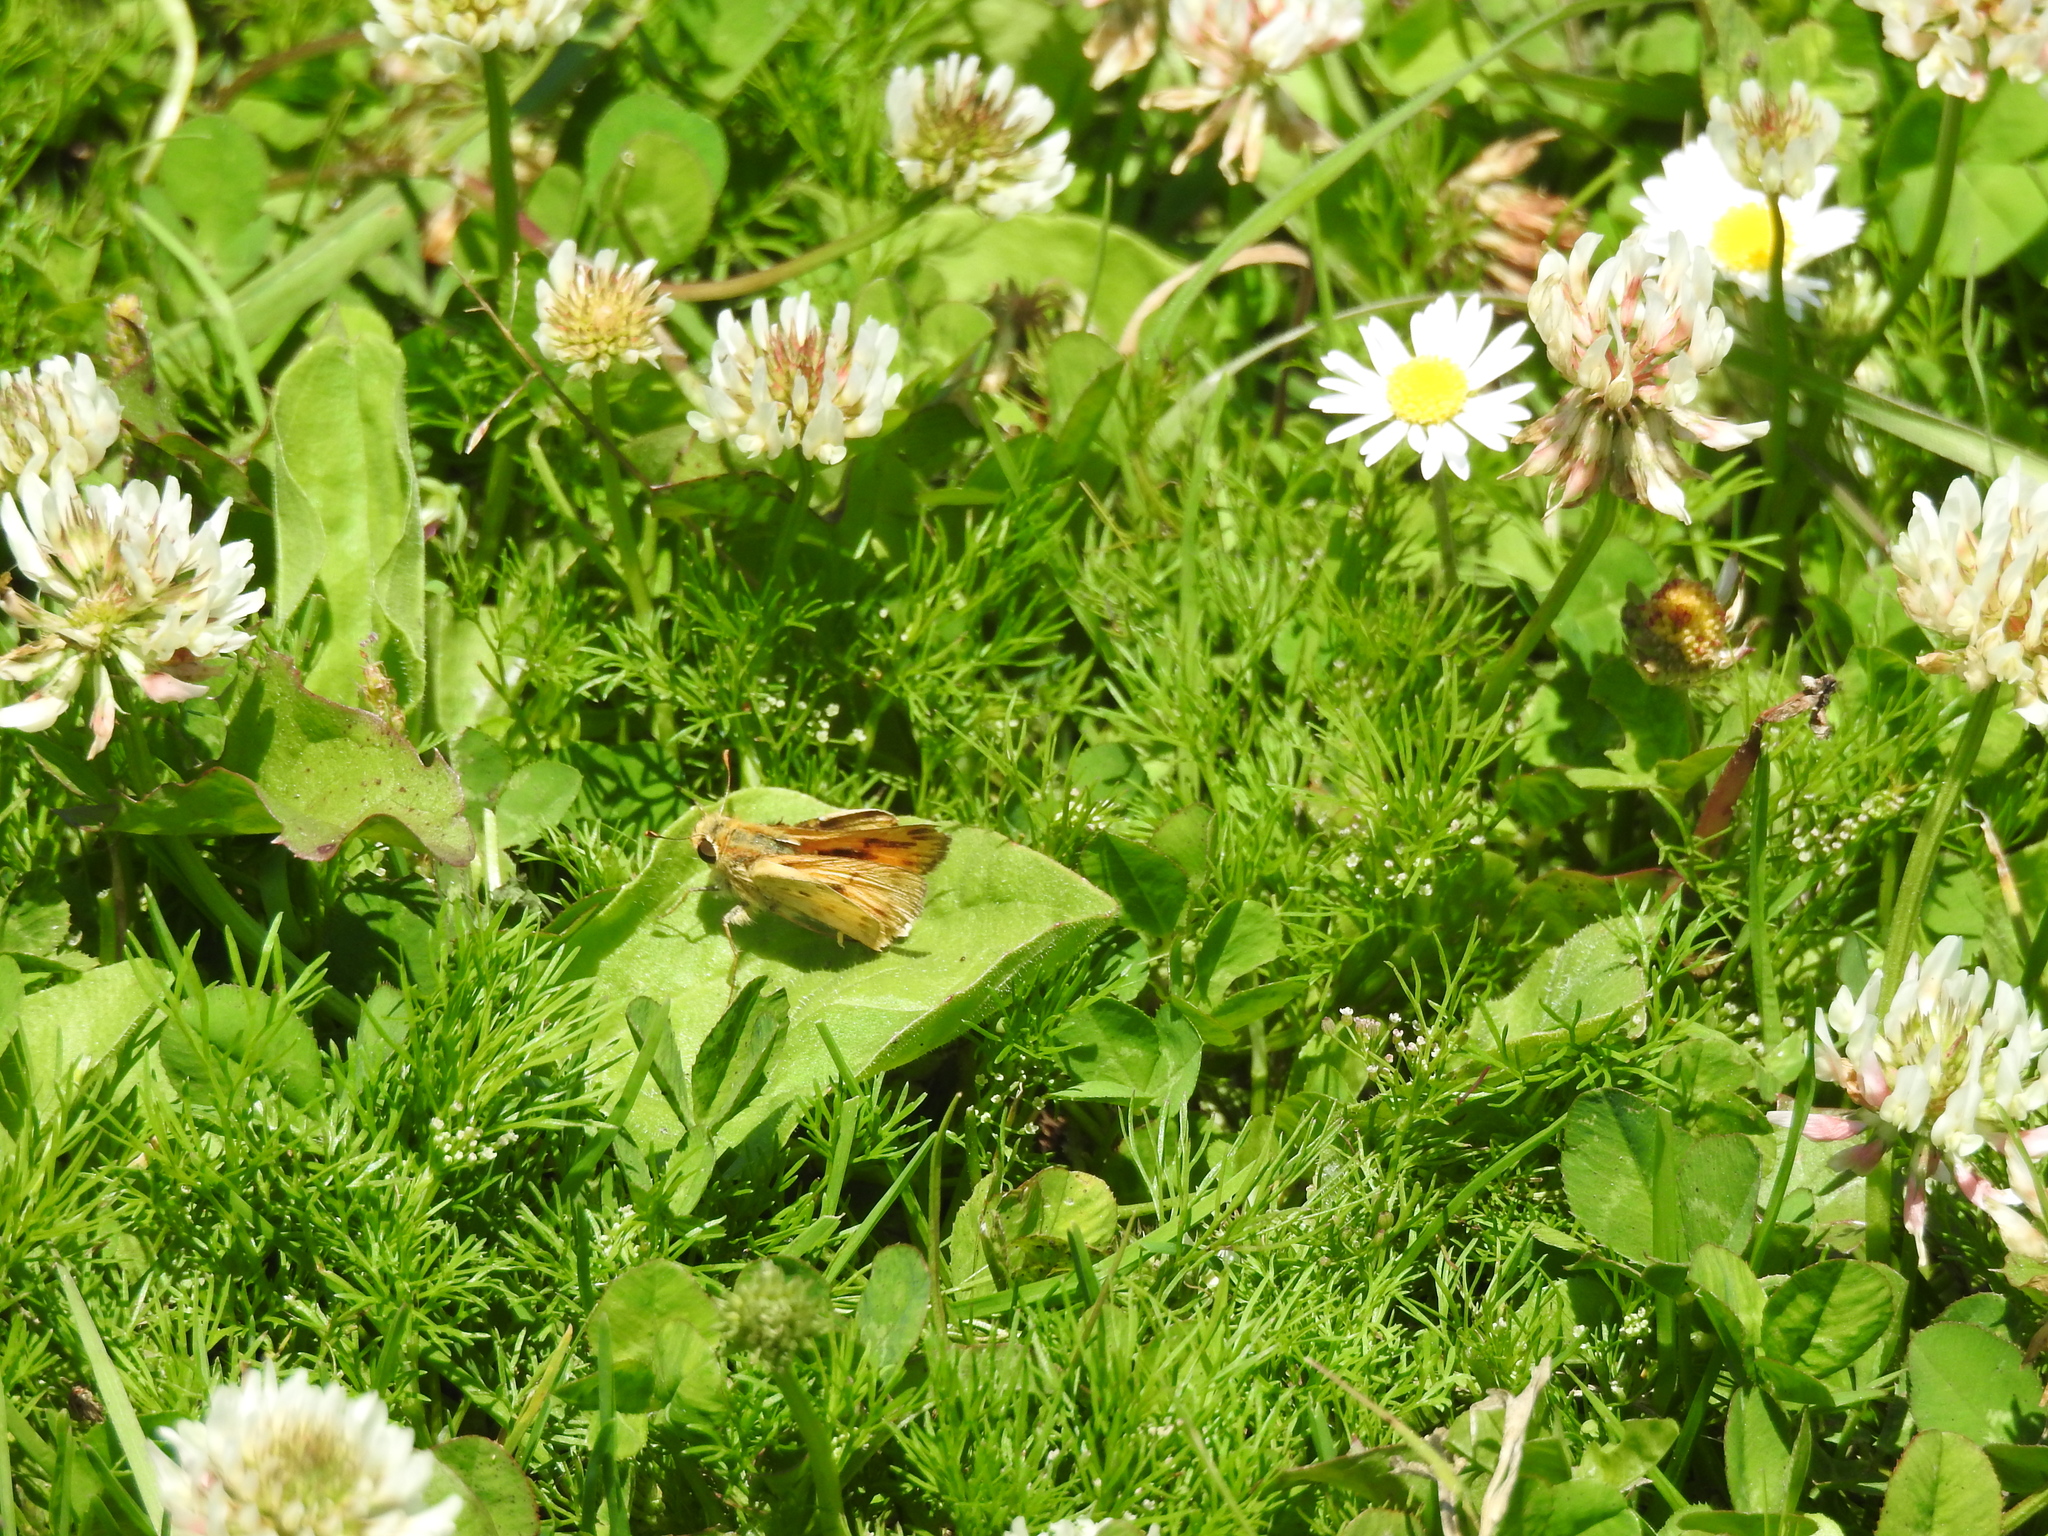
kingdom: Animalia
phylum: Arthropoda
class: Insecta
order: Lepidoptera
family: Hesperiidae
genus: Hylephila
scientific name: Hylephila phyleus
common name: Fiery skipper
